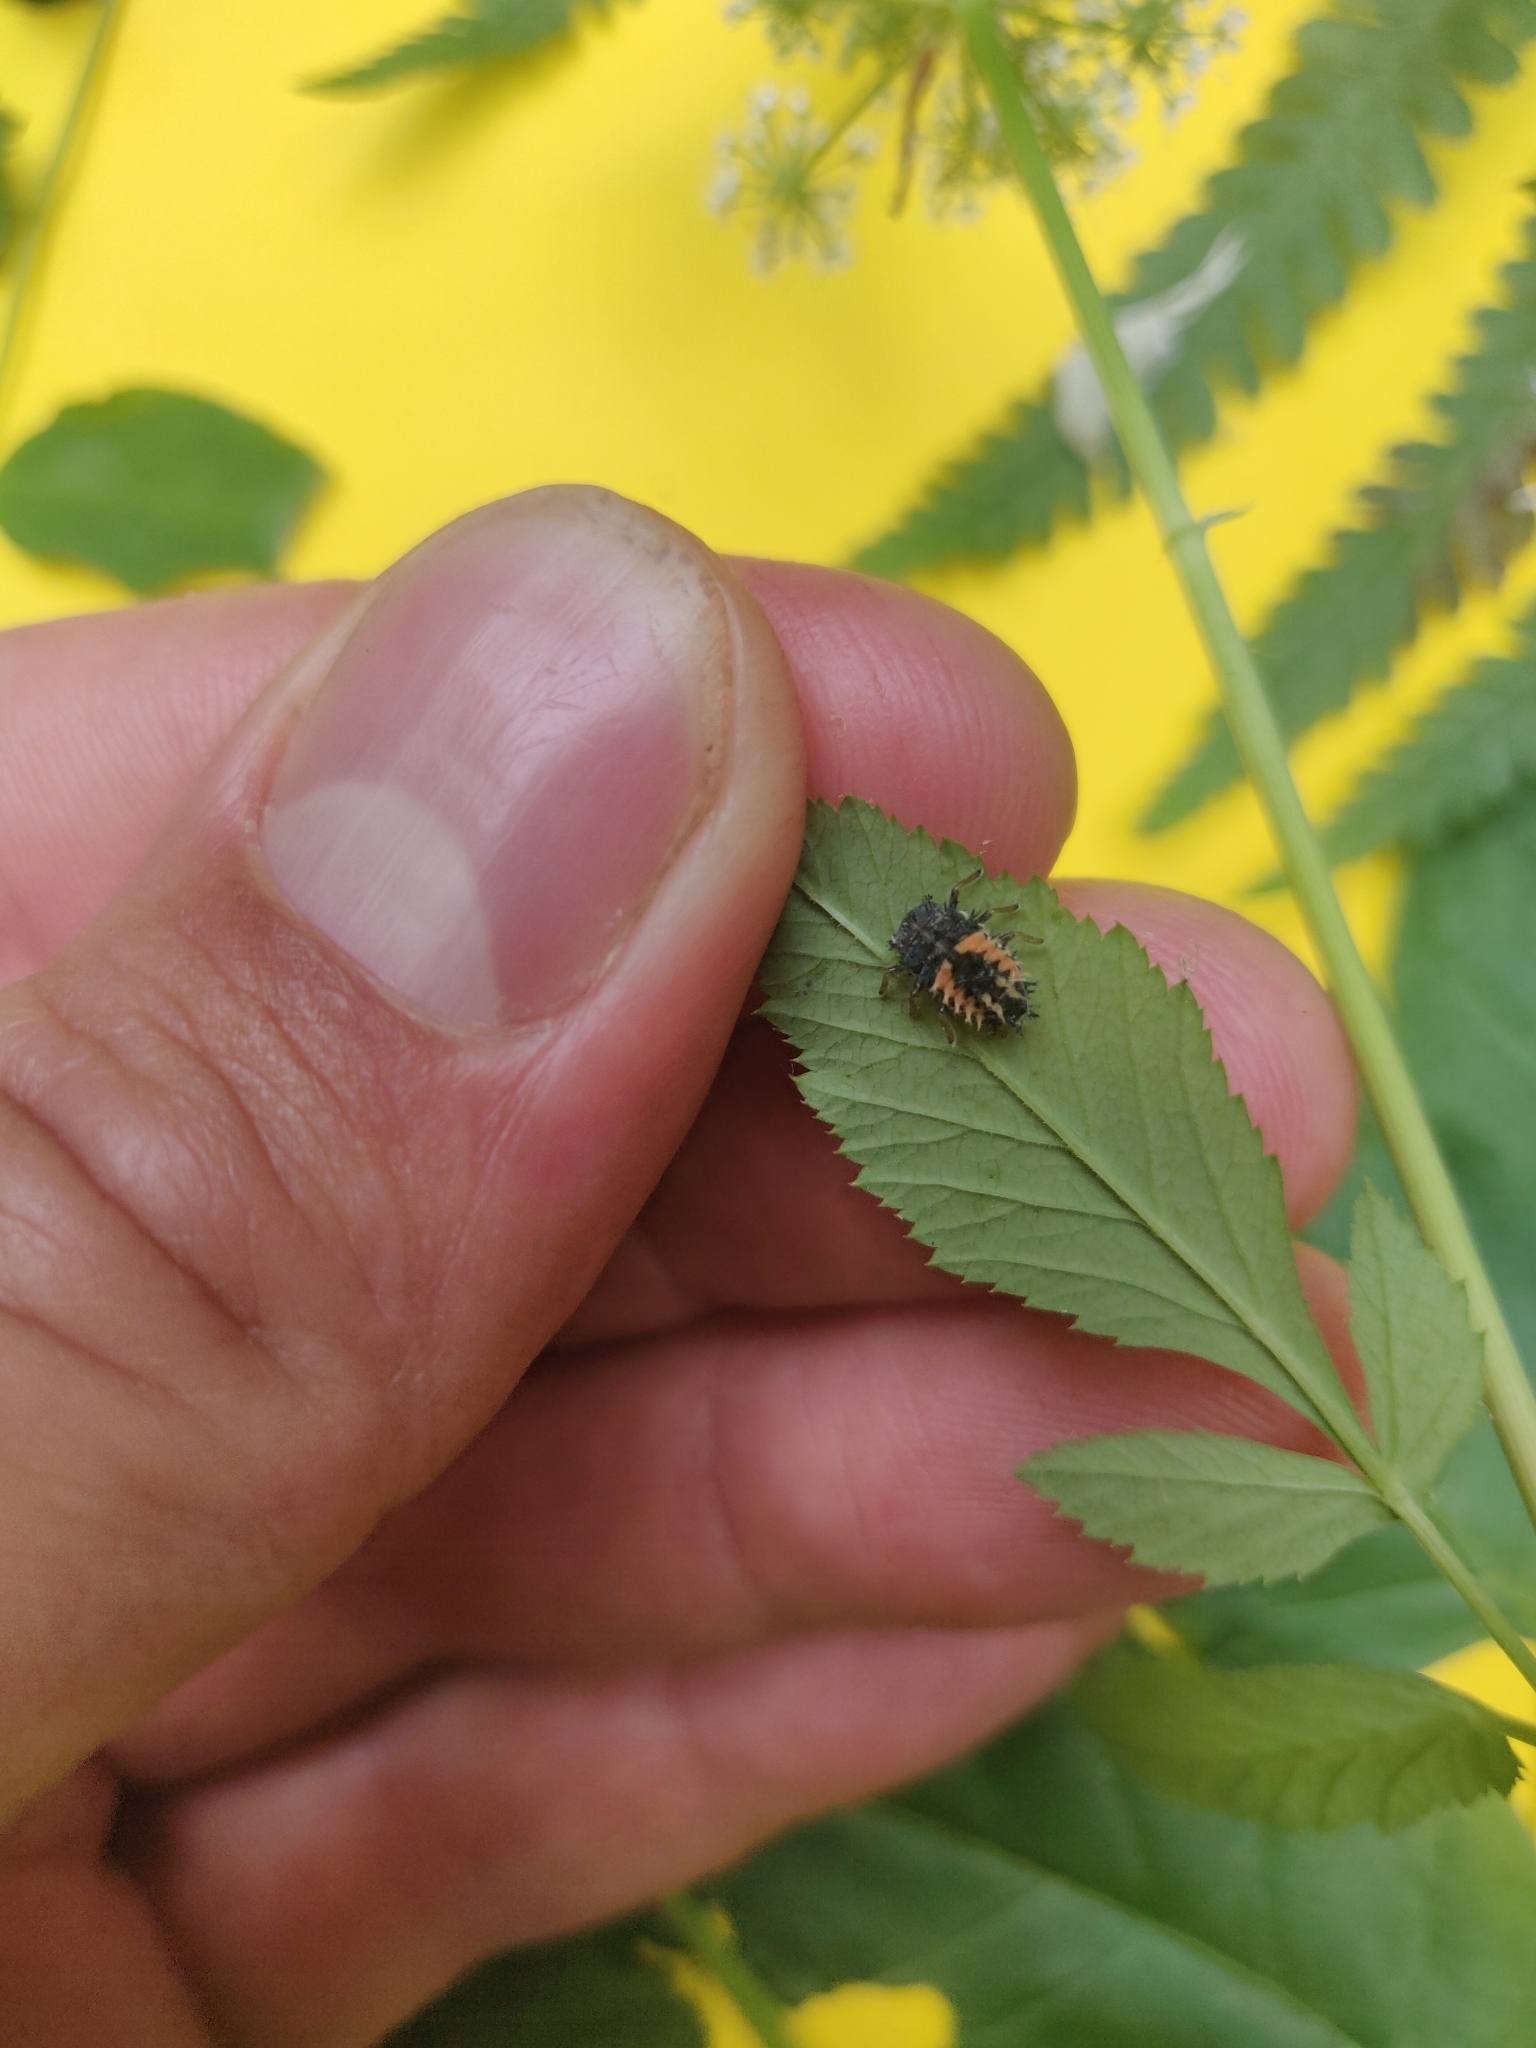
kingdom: Animalia
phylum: Arthropoda
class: Insecta
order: Coleoptera
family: Coccinellidae
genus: Harmonia
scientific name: Harmonia axyridis
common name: Harlequin ladybird
